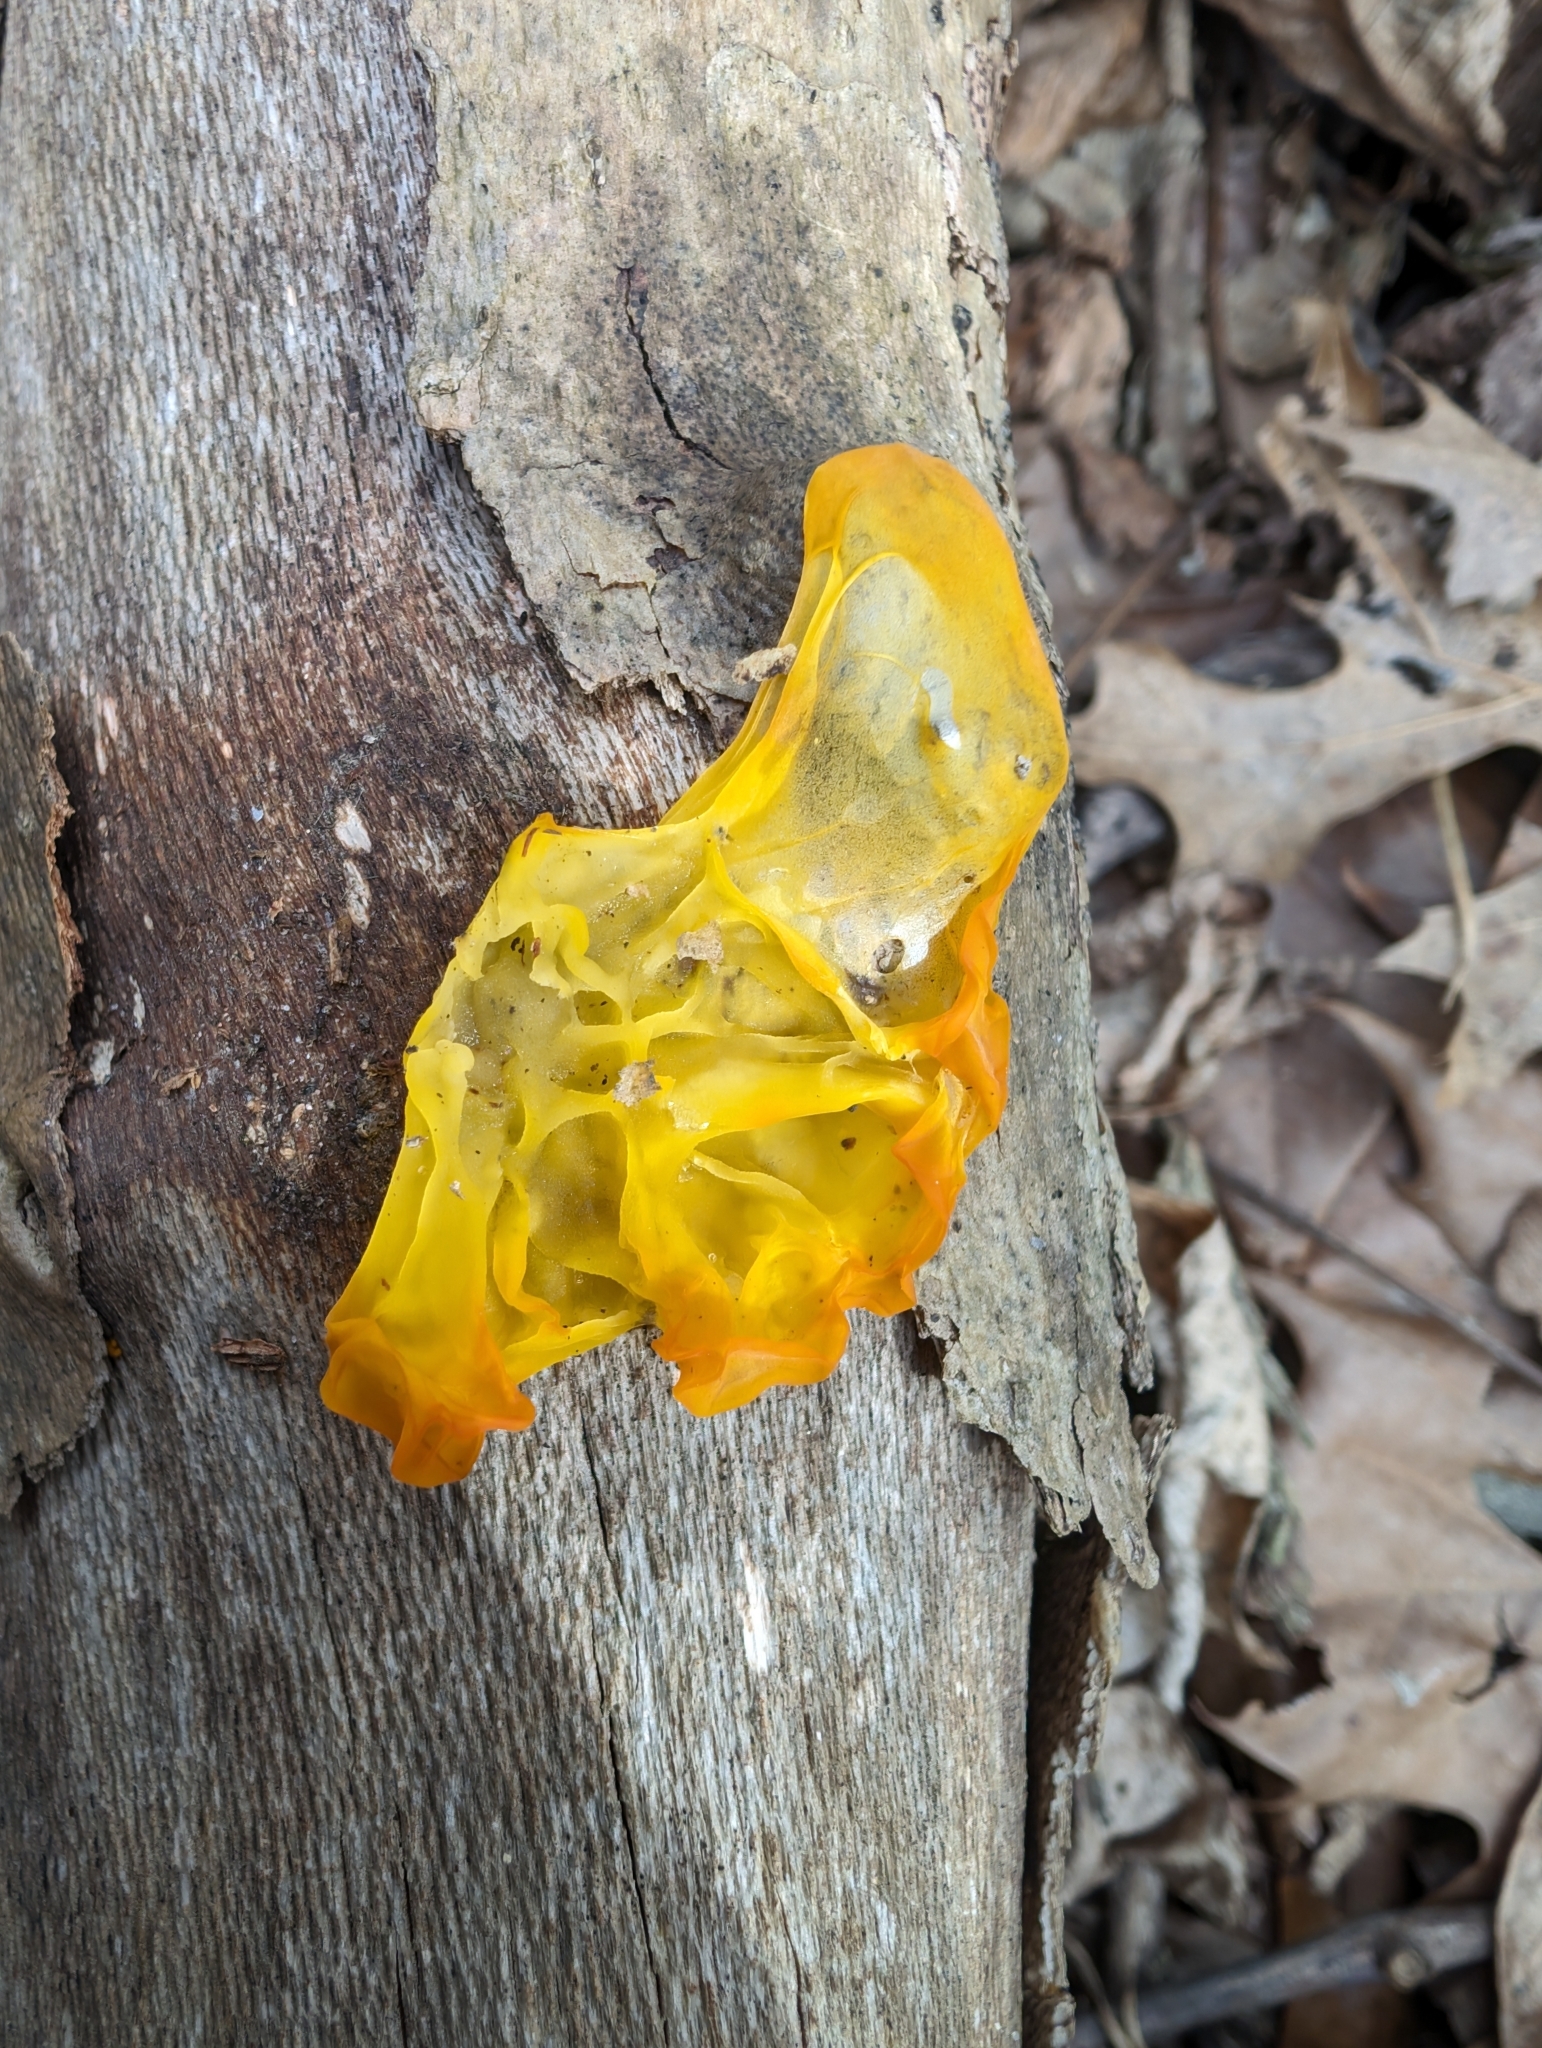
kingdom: Fungi
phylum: Basidiomycota
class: Tremellomycetes
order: Tremellales
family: Tremellaceae
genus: Tremella
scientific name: Tremella mesenterica
